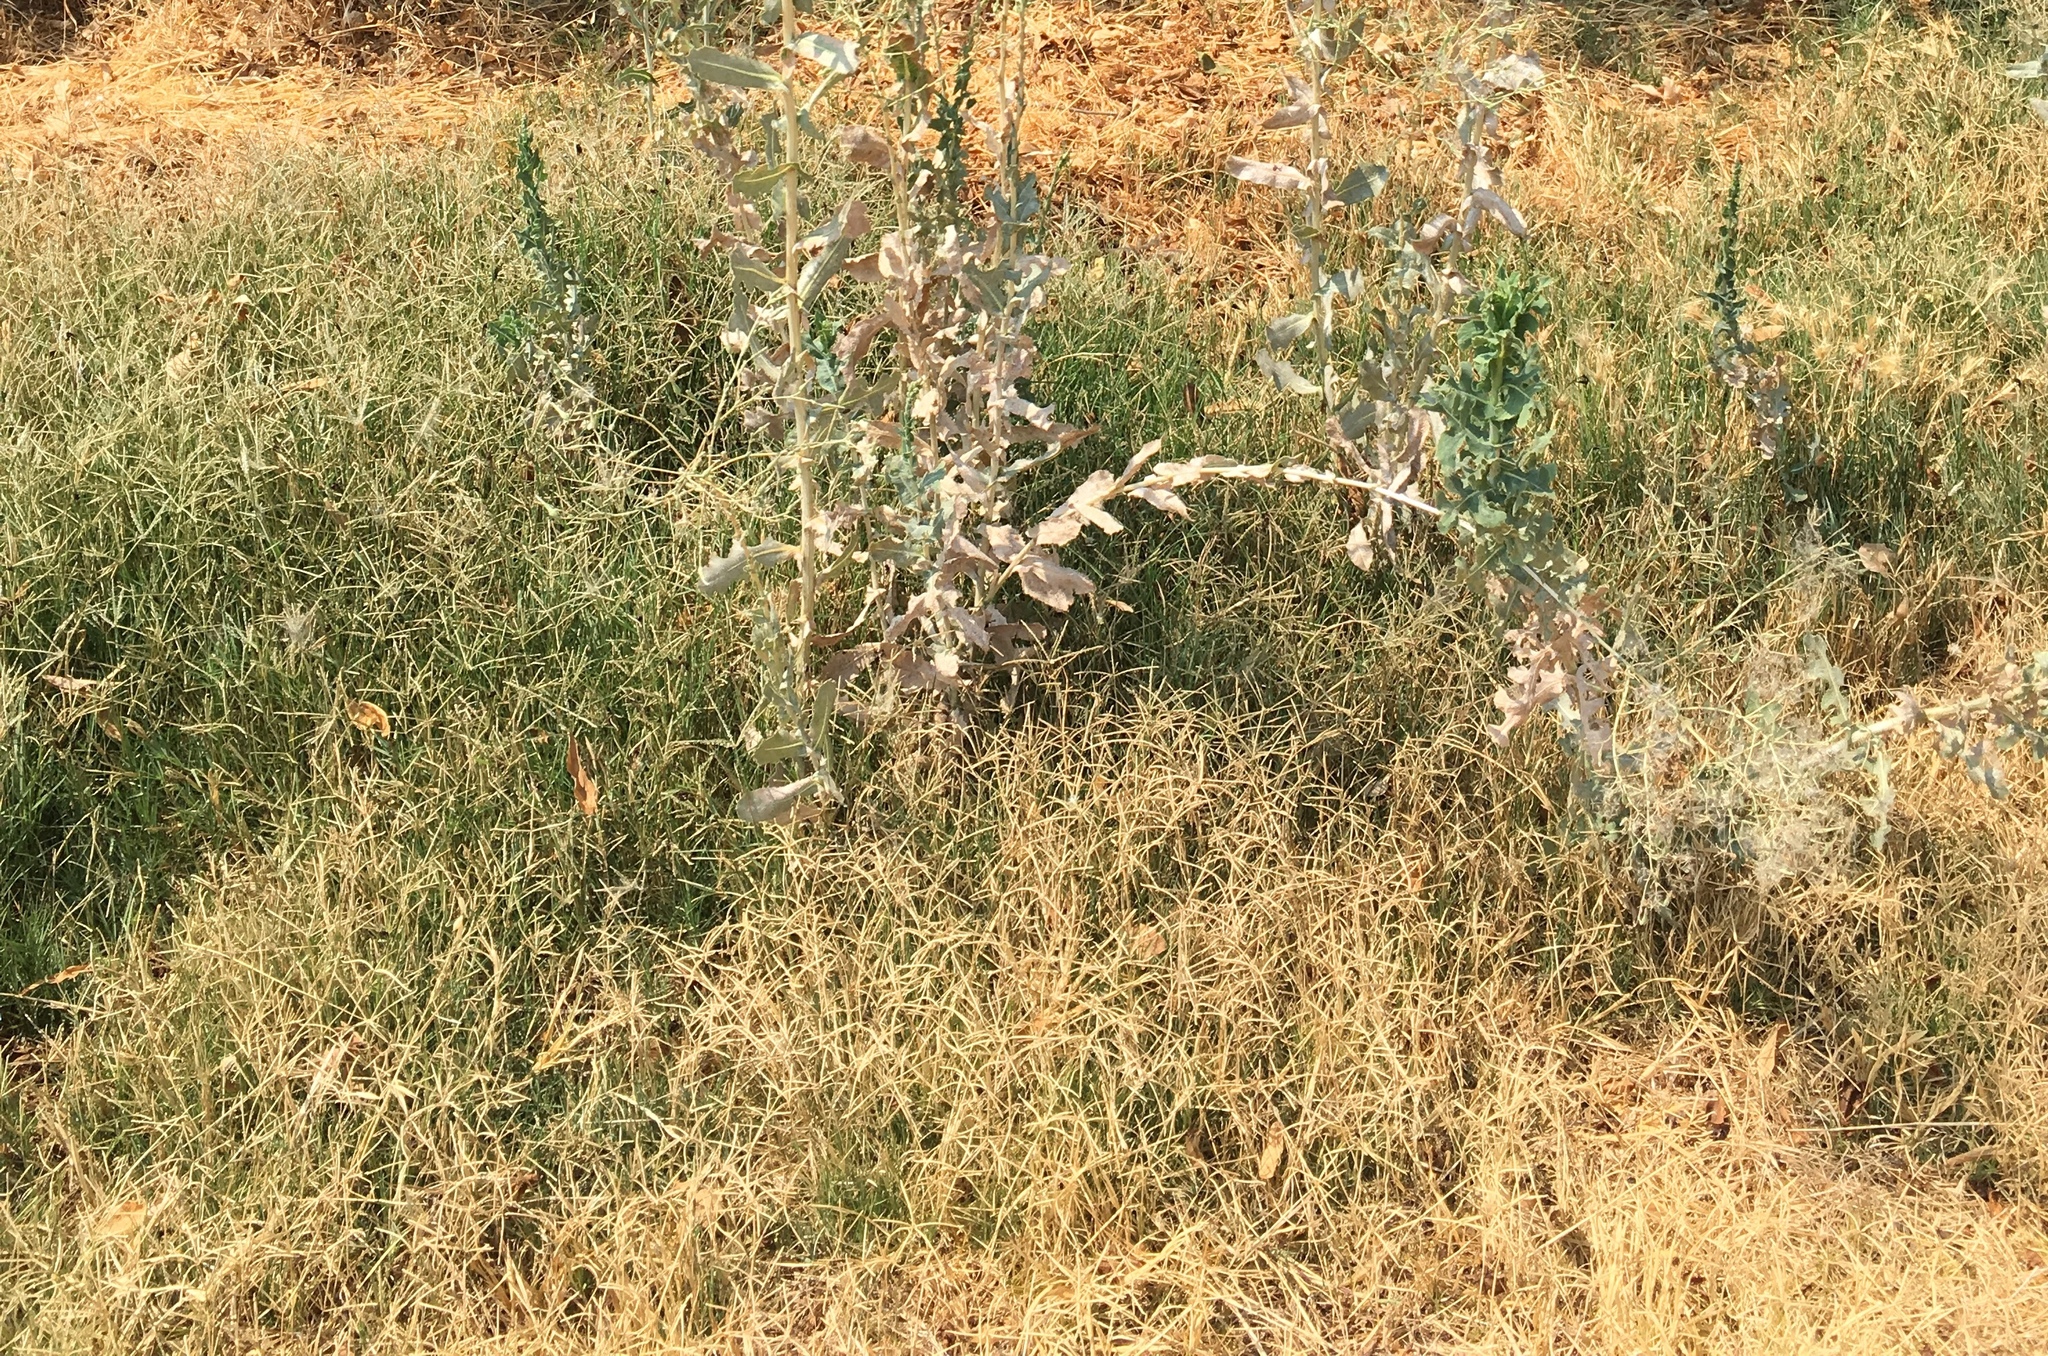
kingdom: Plantae
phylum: Tracheophyta
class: Liliopsida
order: Poales
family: Poaceae
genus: Cynodon
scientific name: Cynodon dactylon
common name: Bermuda grass
